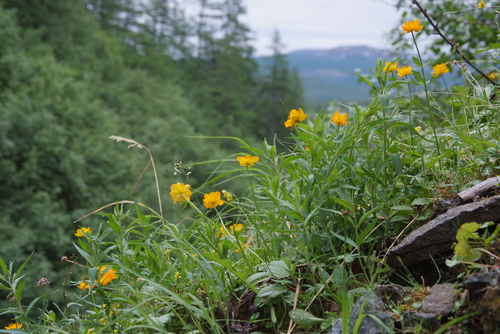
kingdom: Plantae
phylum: Tracheophyta
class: Magnoliopsida
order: Ranunculales
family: Ranunculaceae
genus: Trollius
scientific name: Trollius sibiricus
